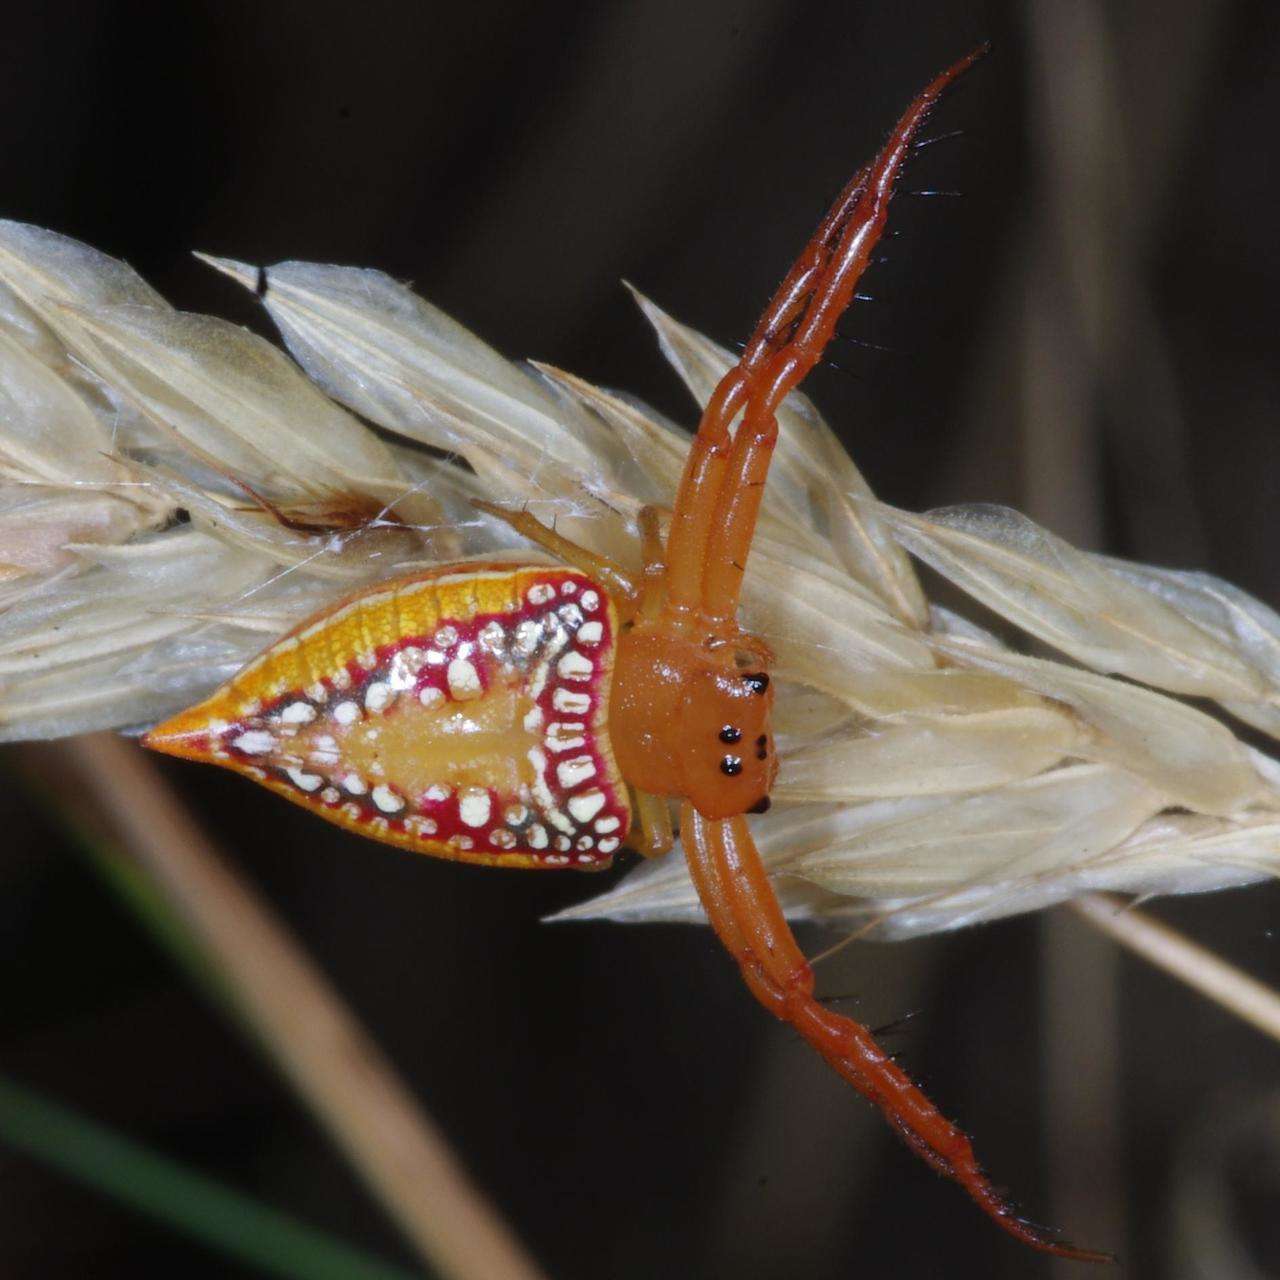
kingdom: Animalia
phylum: Arthropoda
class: Arachnida
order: Araneae
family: Arkyidae
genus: Arkys
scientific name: Arkys walckenaeri
